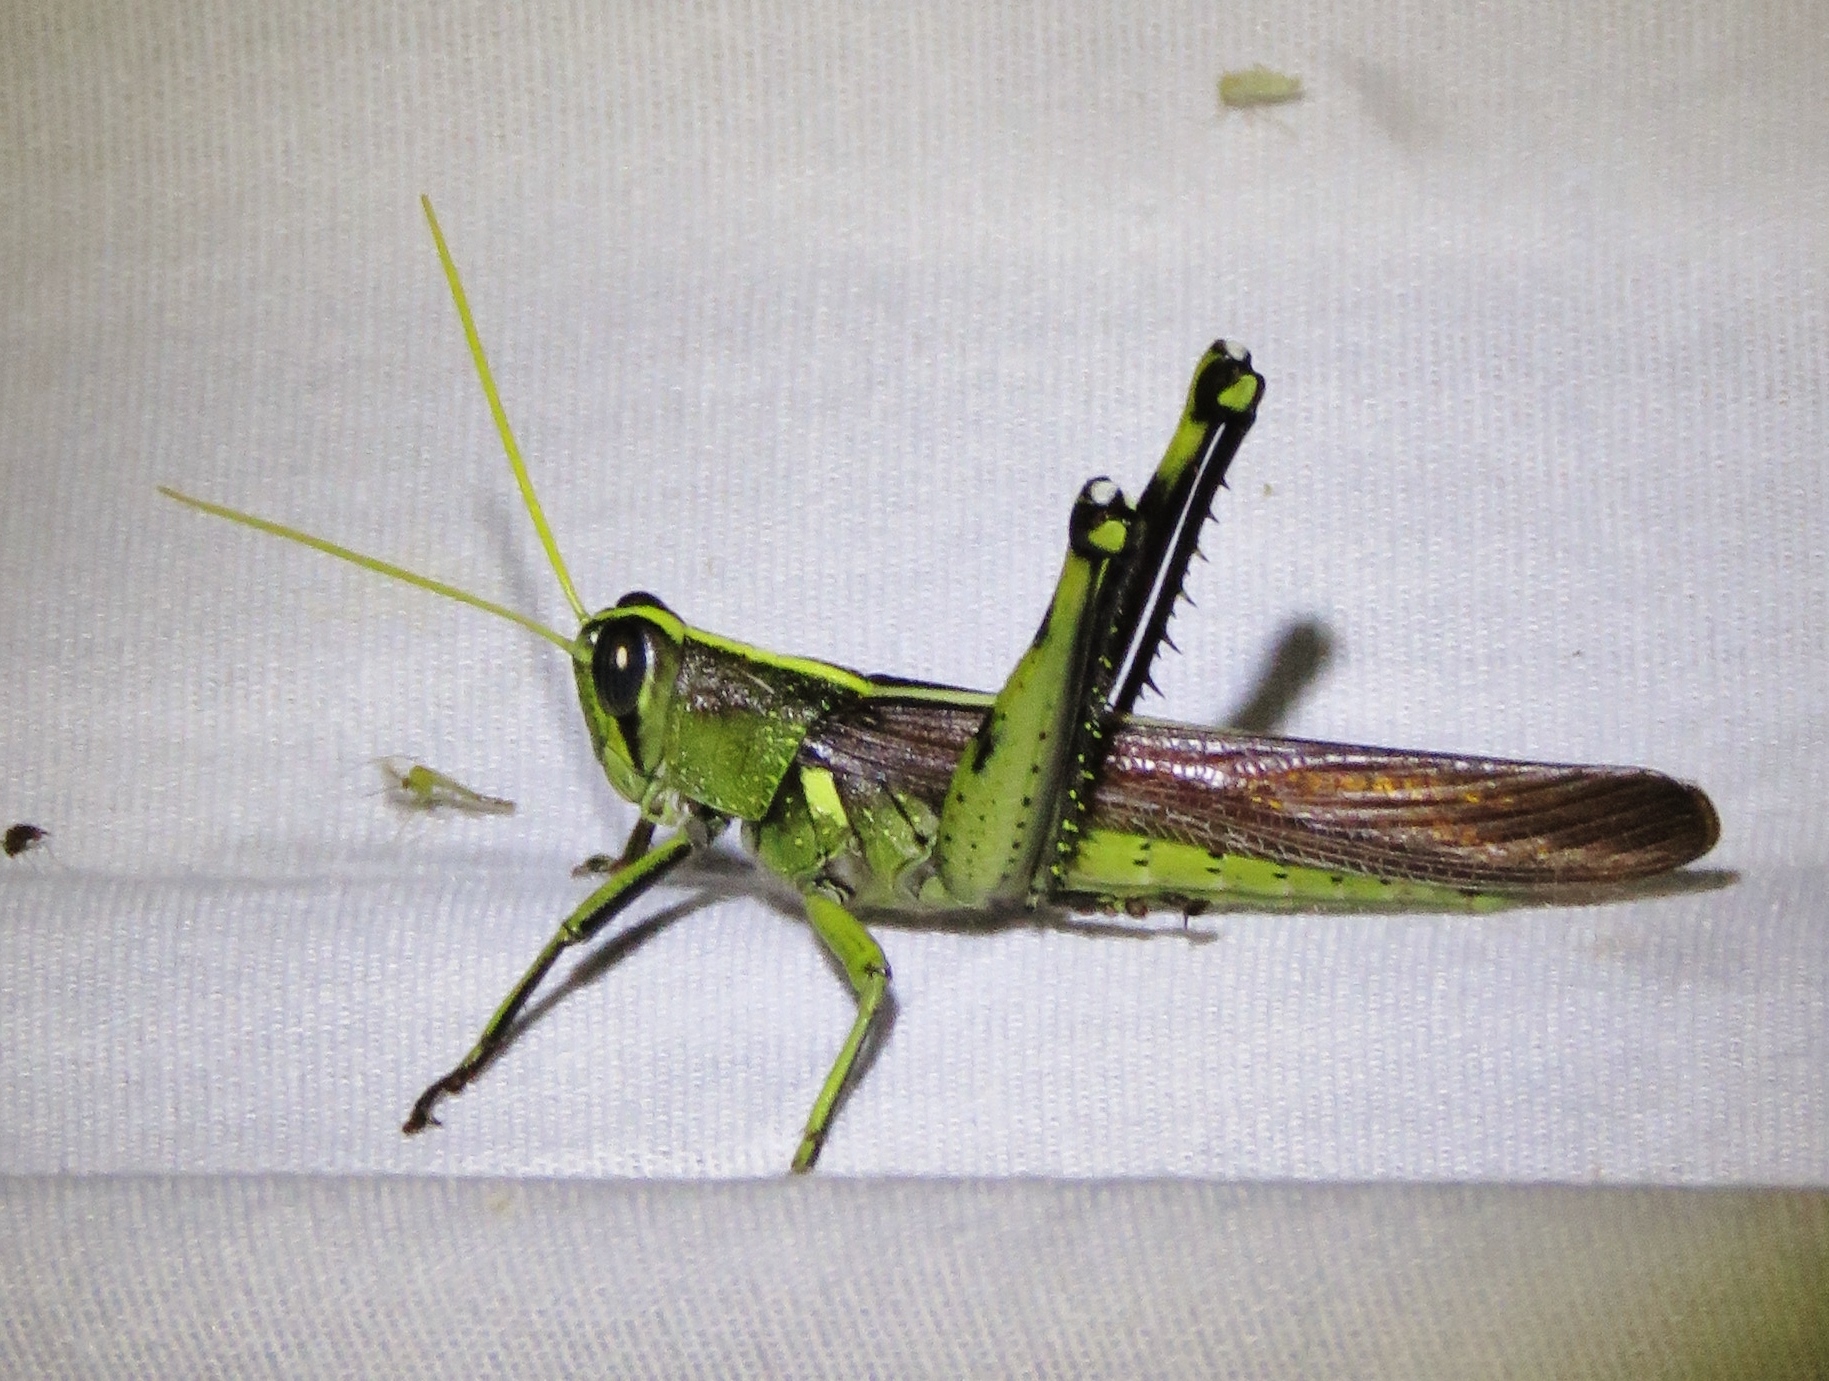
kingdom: Animalia
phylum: Arthropoda
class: Insecta
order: Orthoptera
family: Acrididae
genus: Schistocerca
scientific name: Schistocerca obscura
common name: Obscure bird grasshopper
